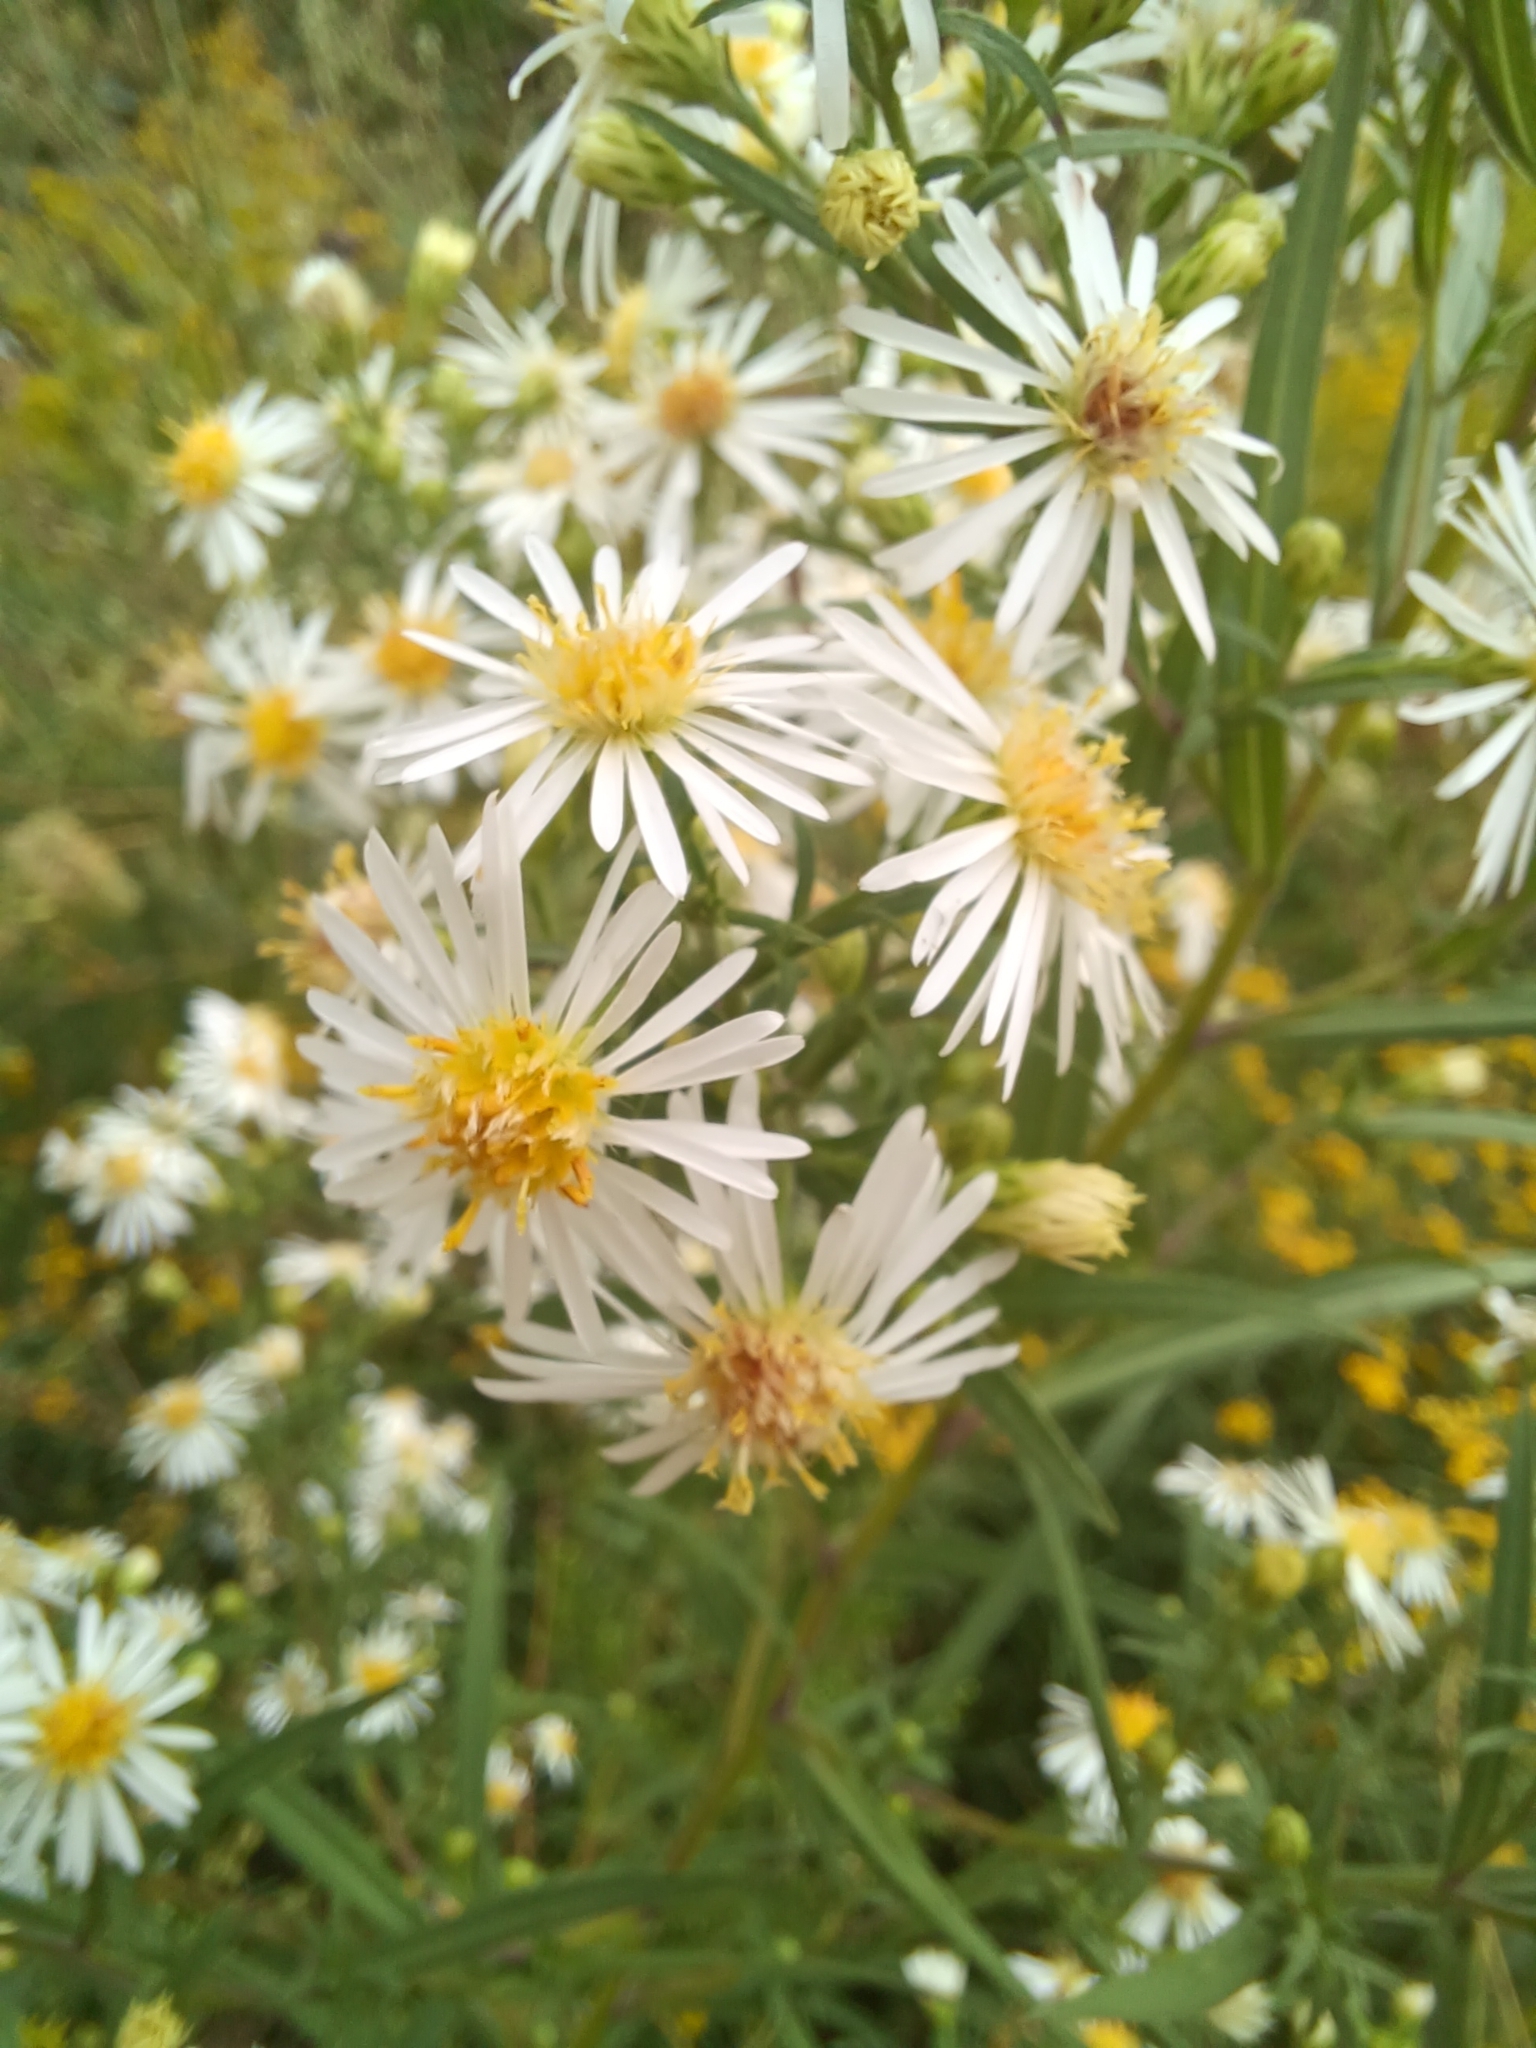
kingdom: Plantae
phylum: Tracheophyta
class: Magnoliopsida
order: Asterales
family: Asteraceae
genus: Symphyotrichum
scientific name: Symphyotrichum lanceolatum
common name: Panicled aster
